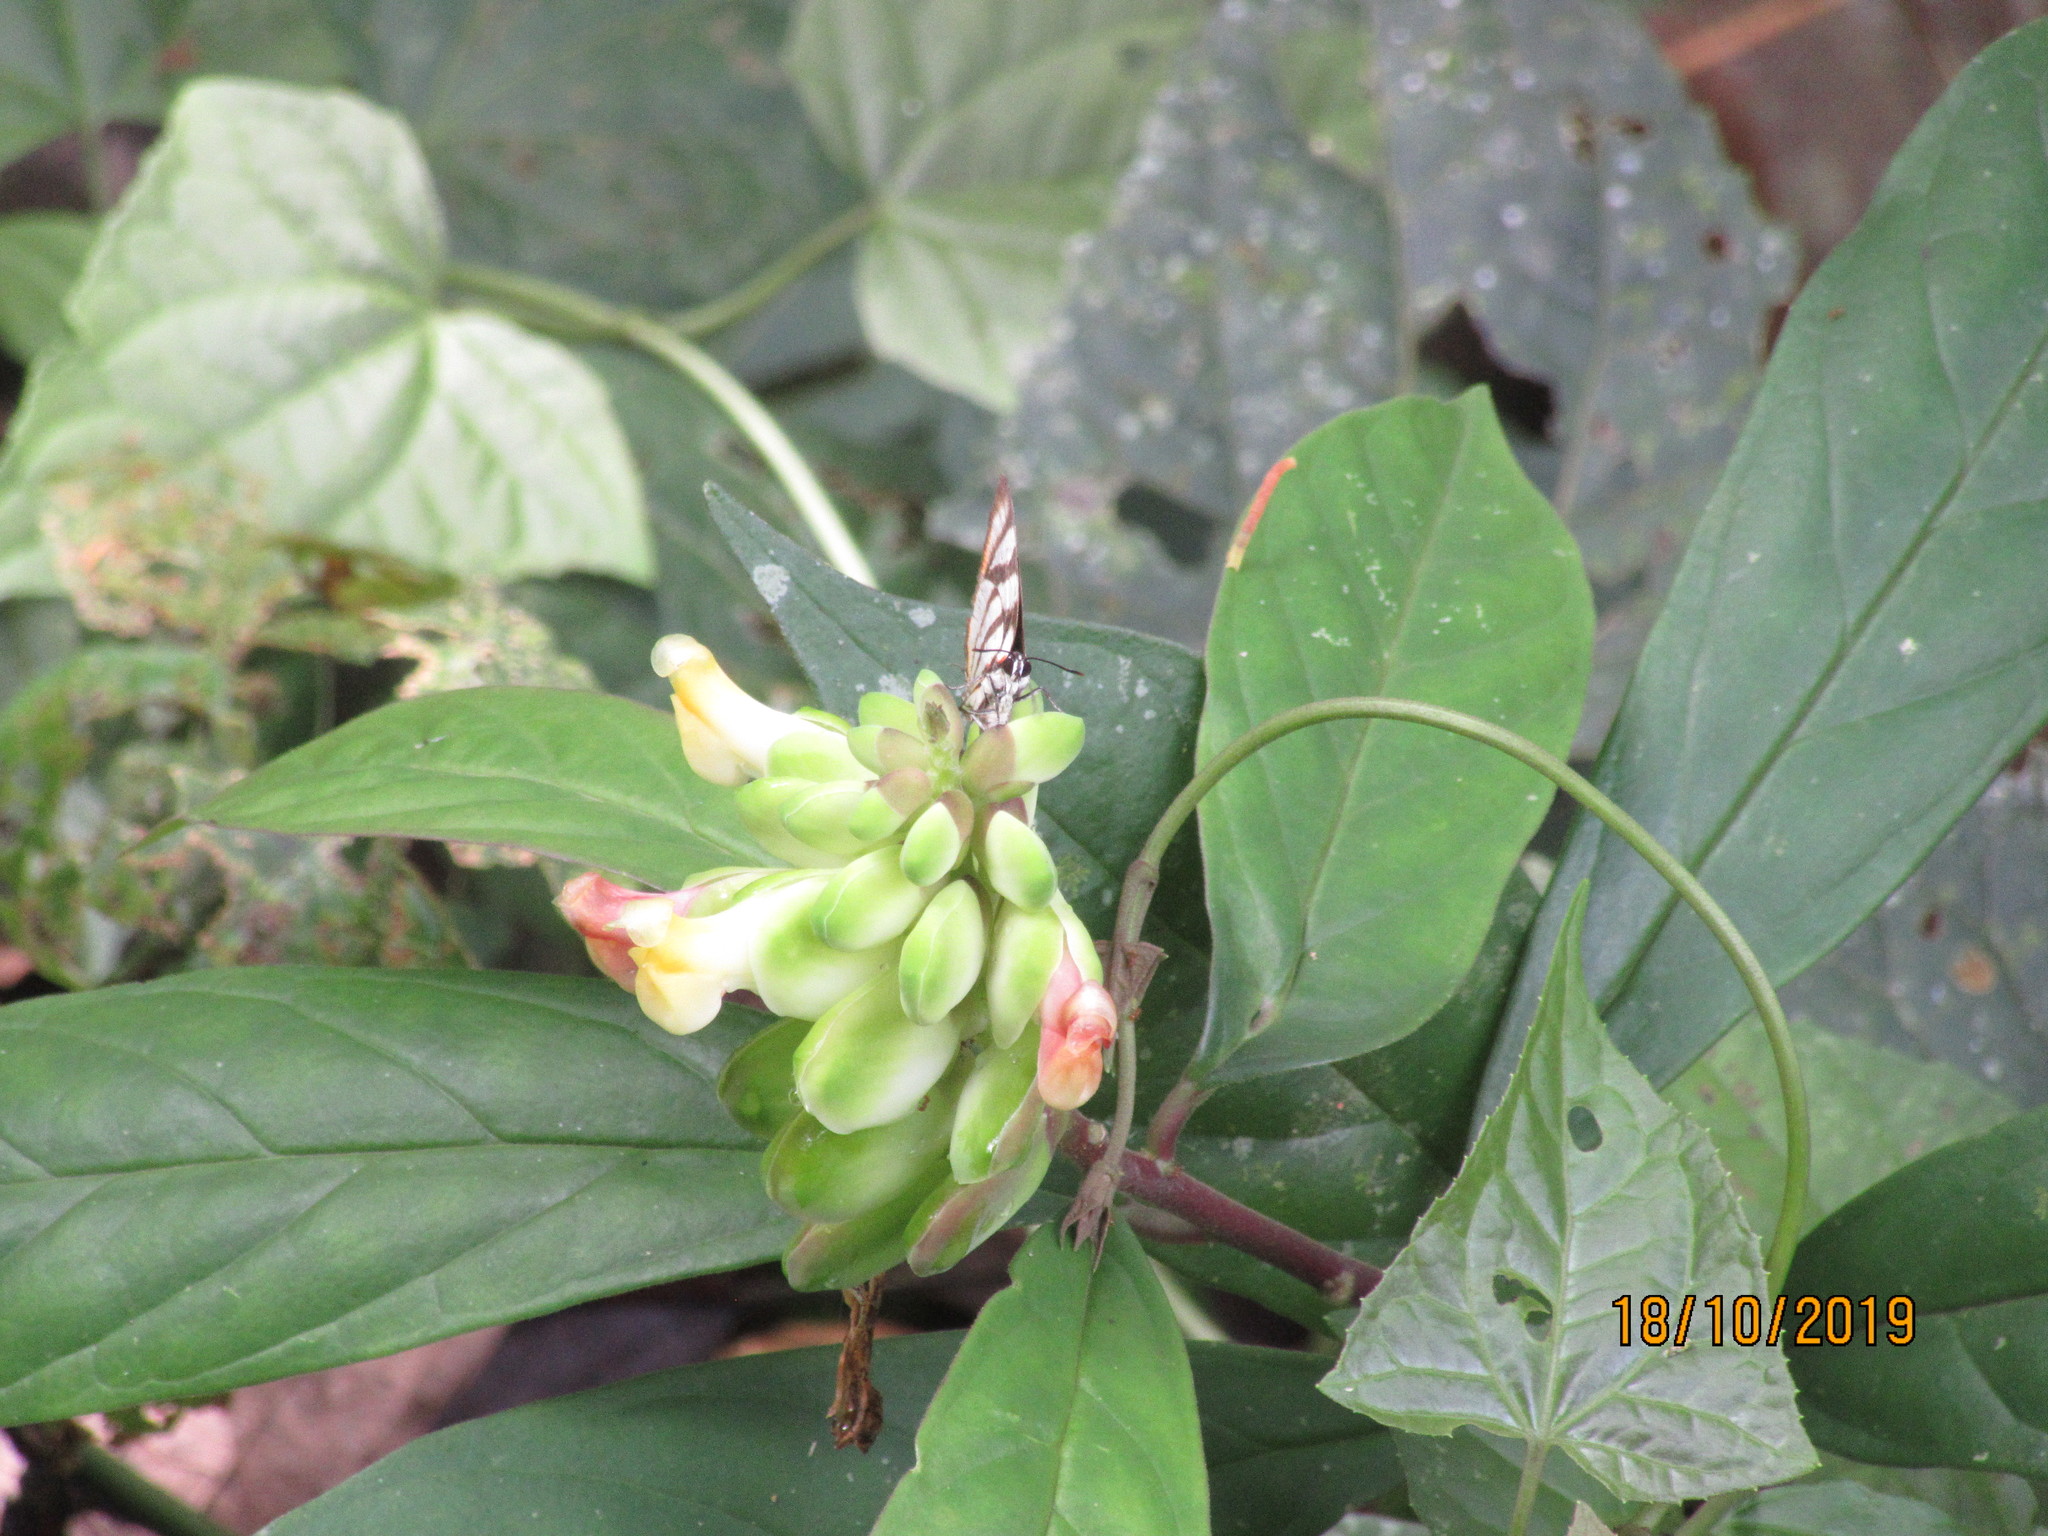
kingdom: Animalia
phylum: Arthropoda
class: Insecta
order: Lepidoptera
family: Lycaenidae
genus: Cycnus
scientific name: Cycnus phaleros
